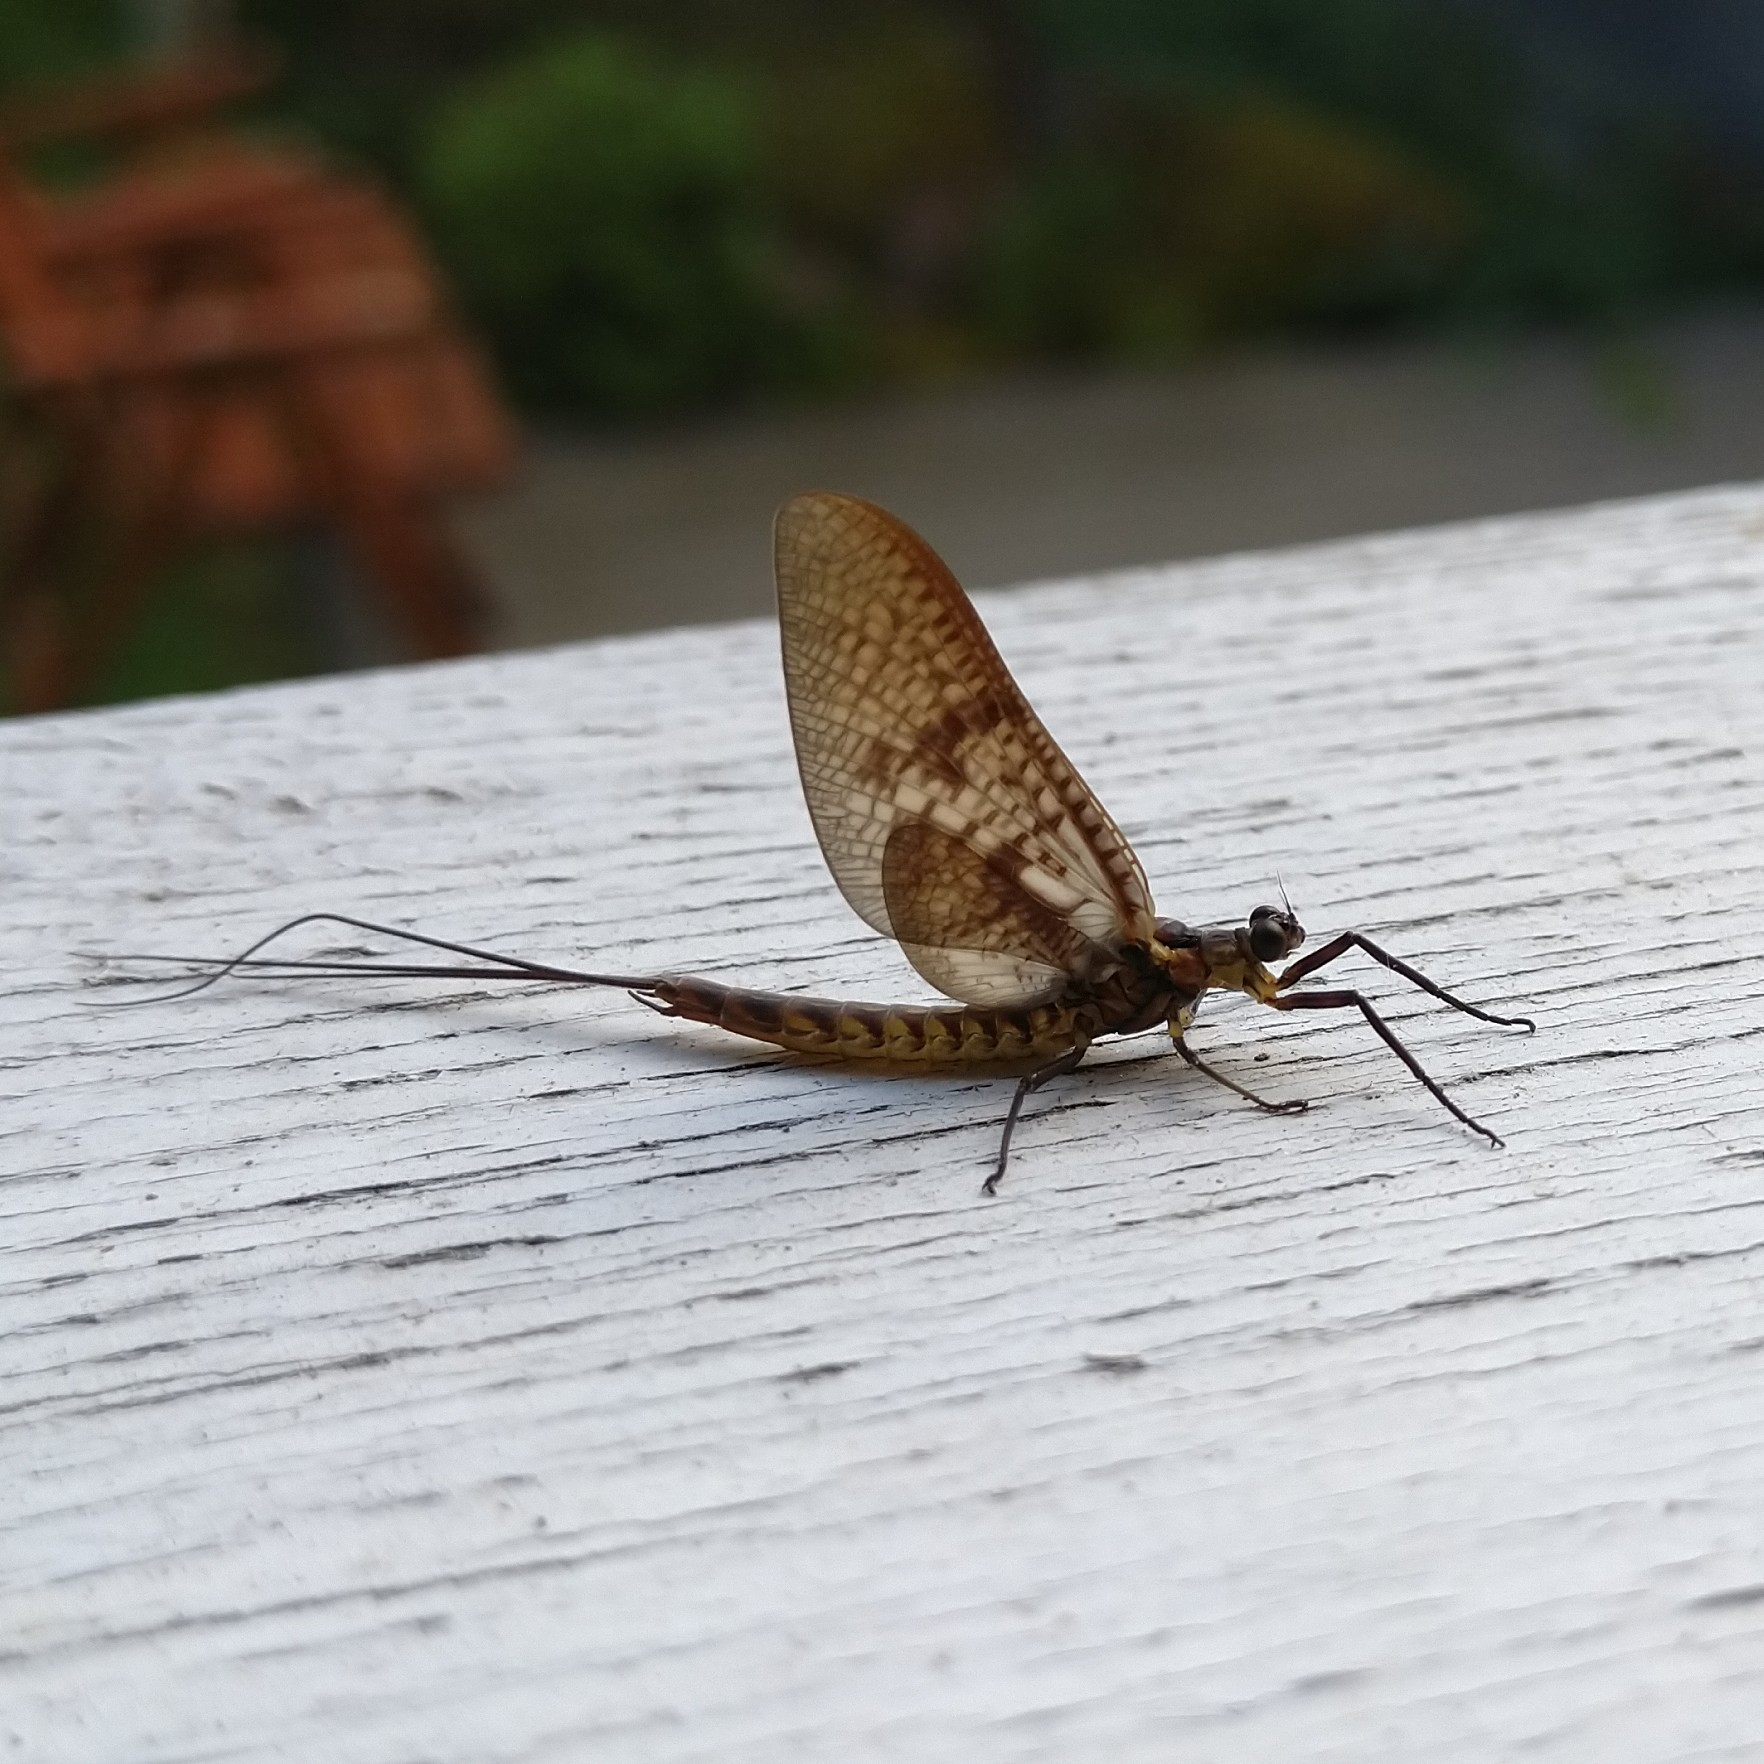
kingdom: Animalia
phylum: Arthropoda
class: Insecta
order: Ephemeroptera
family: Ephemeridae
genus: Ephemera
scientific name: Ephemera vulgata
